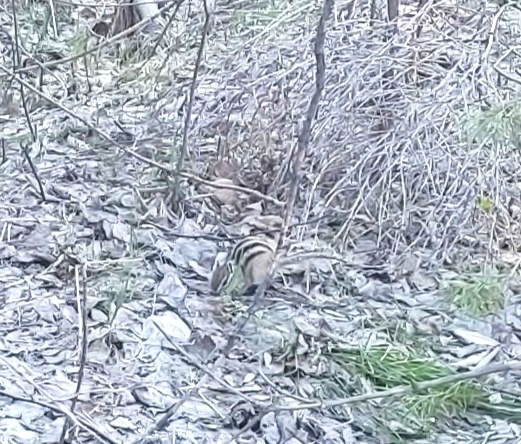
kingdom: Animalia
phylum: Chordata
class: Mammalia
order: Rodentia
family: Sciuridae
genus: Tamias
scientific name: Tamias sibiricus
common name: Siberian chipmunk
